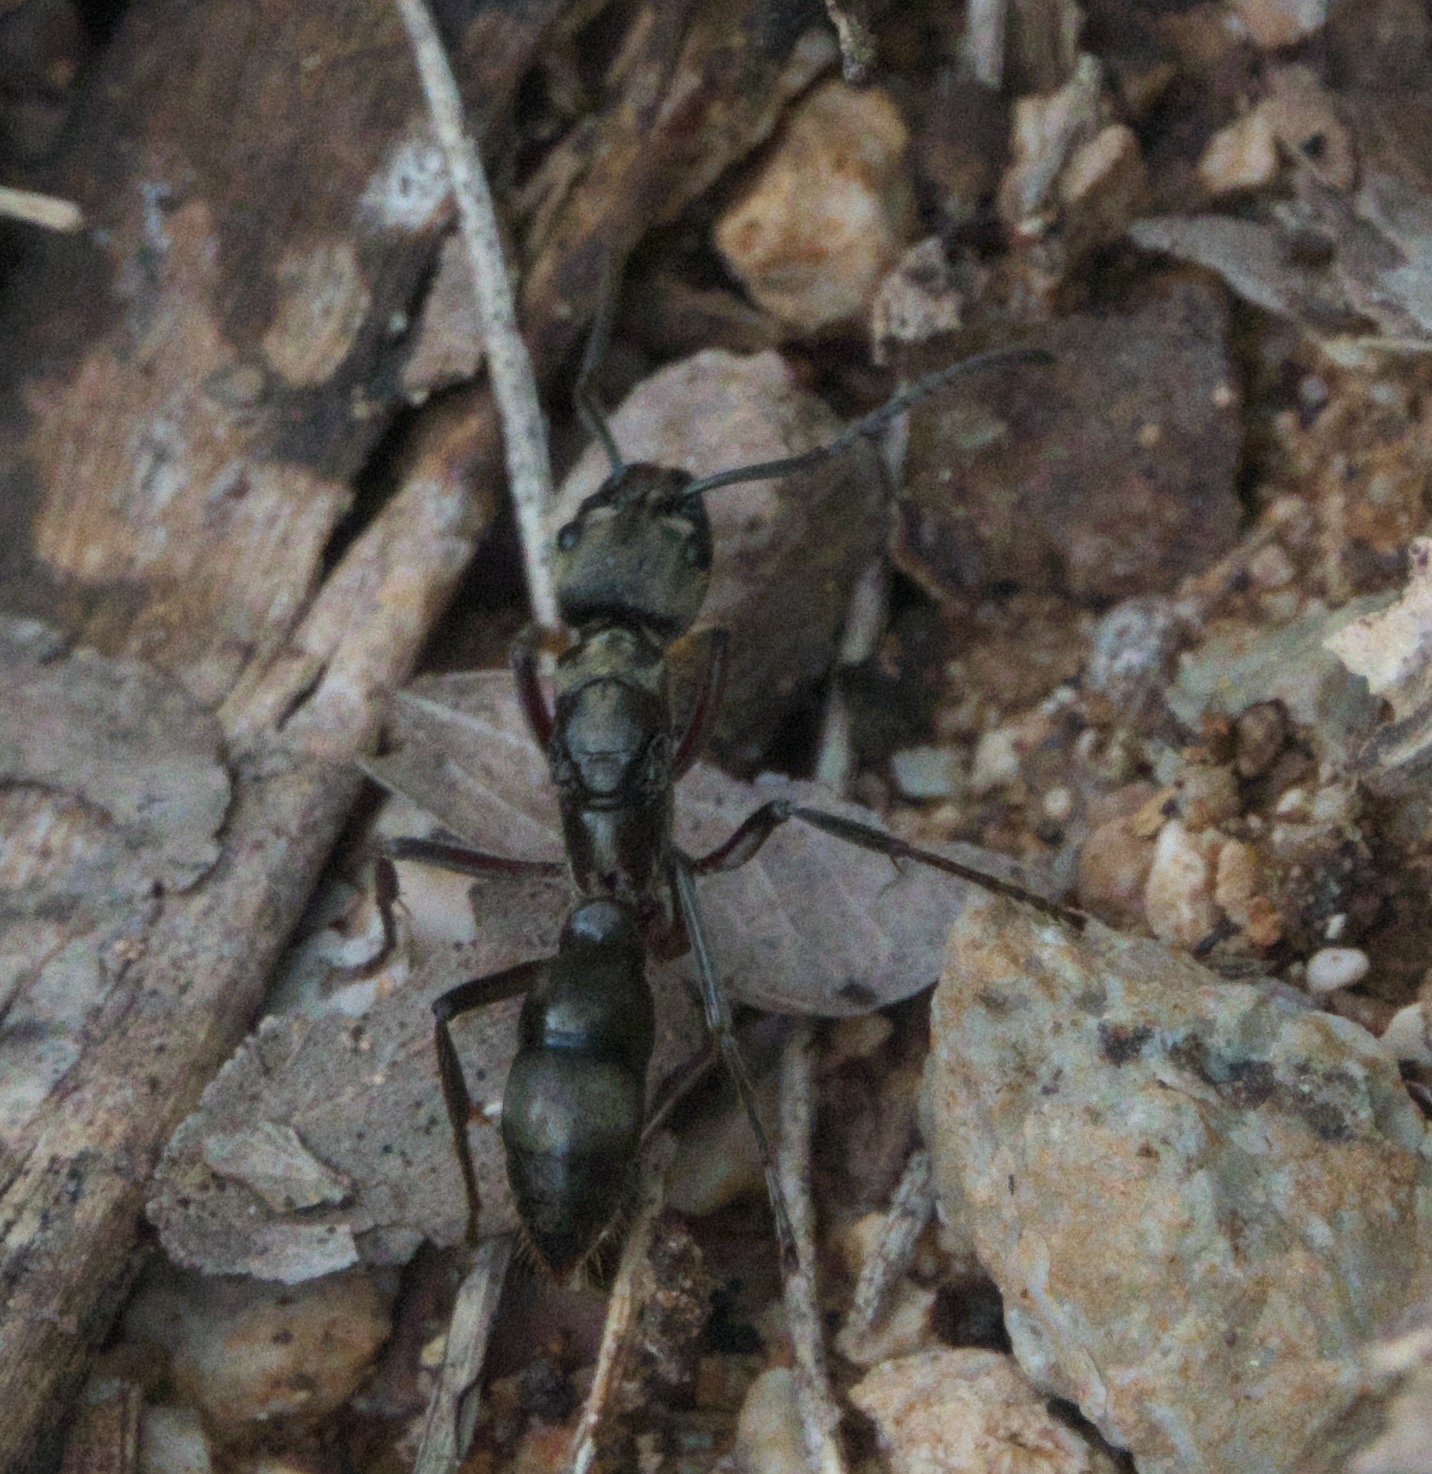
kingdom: Animalia
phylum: Arthropoda
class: Insecta
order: Hymenoptera
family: Formicidae
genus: Pachycondyla
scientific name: Pachycondyla villosa
